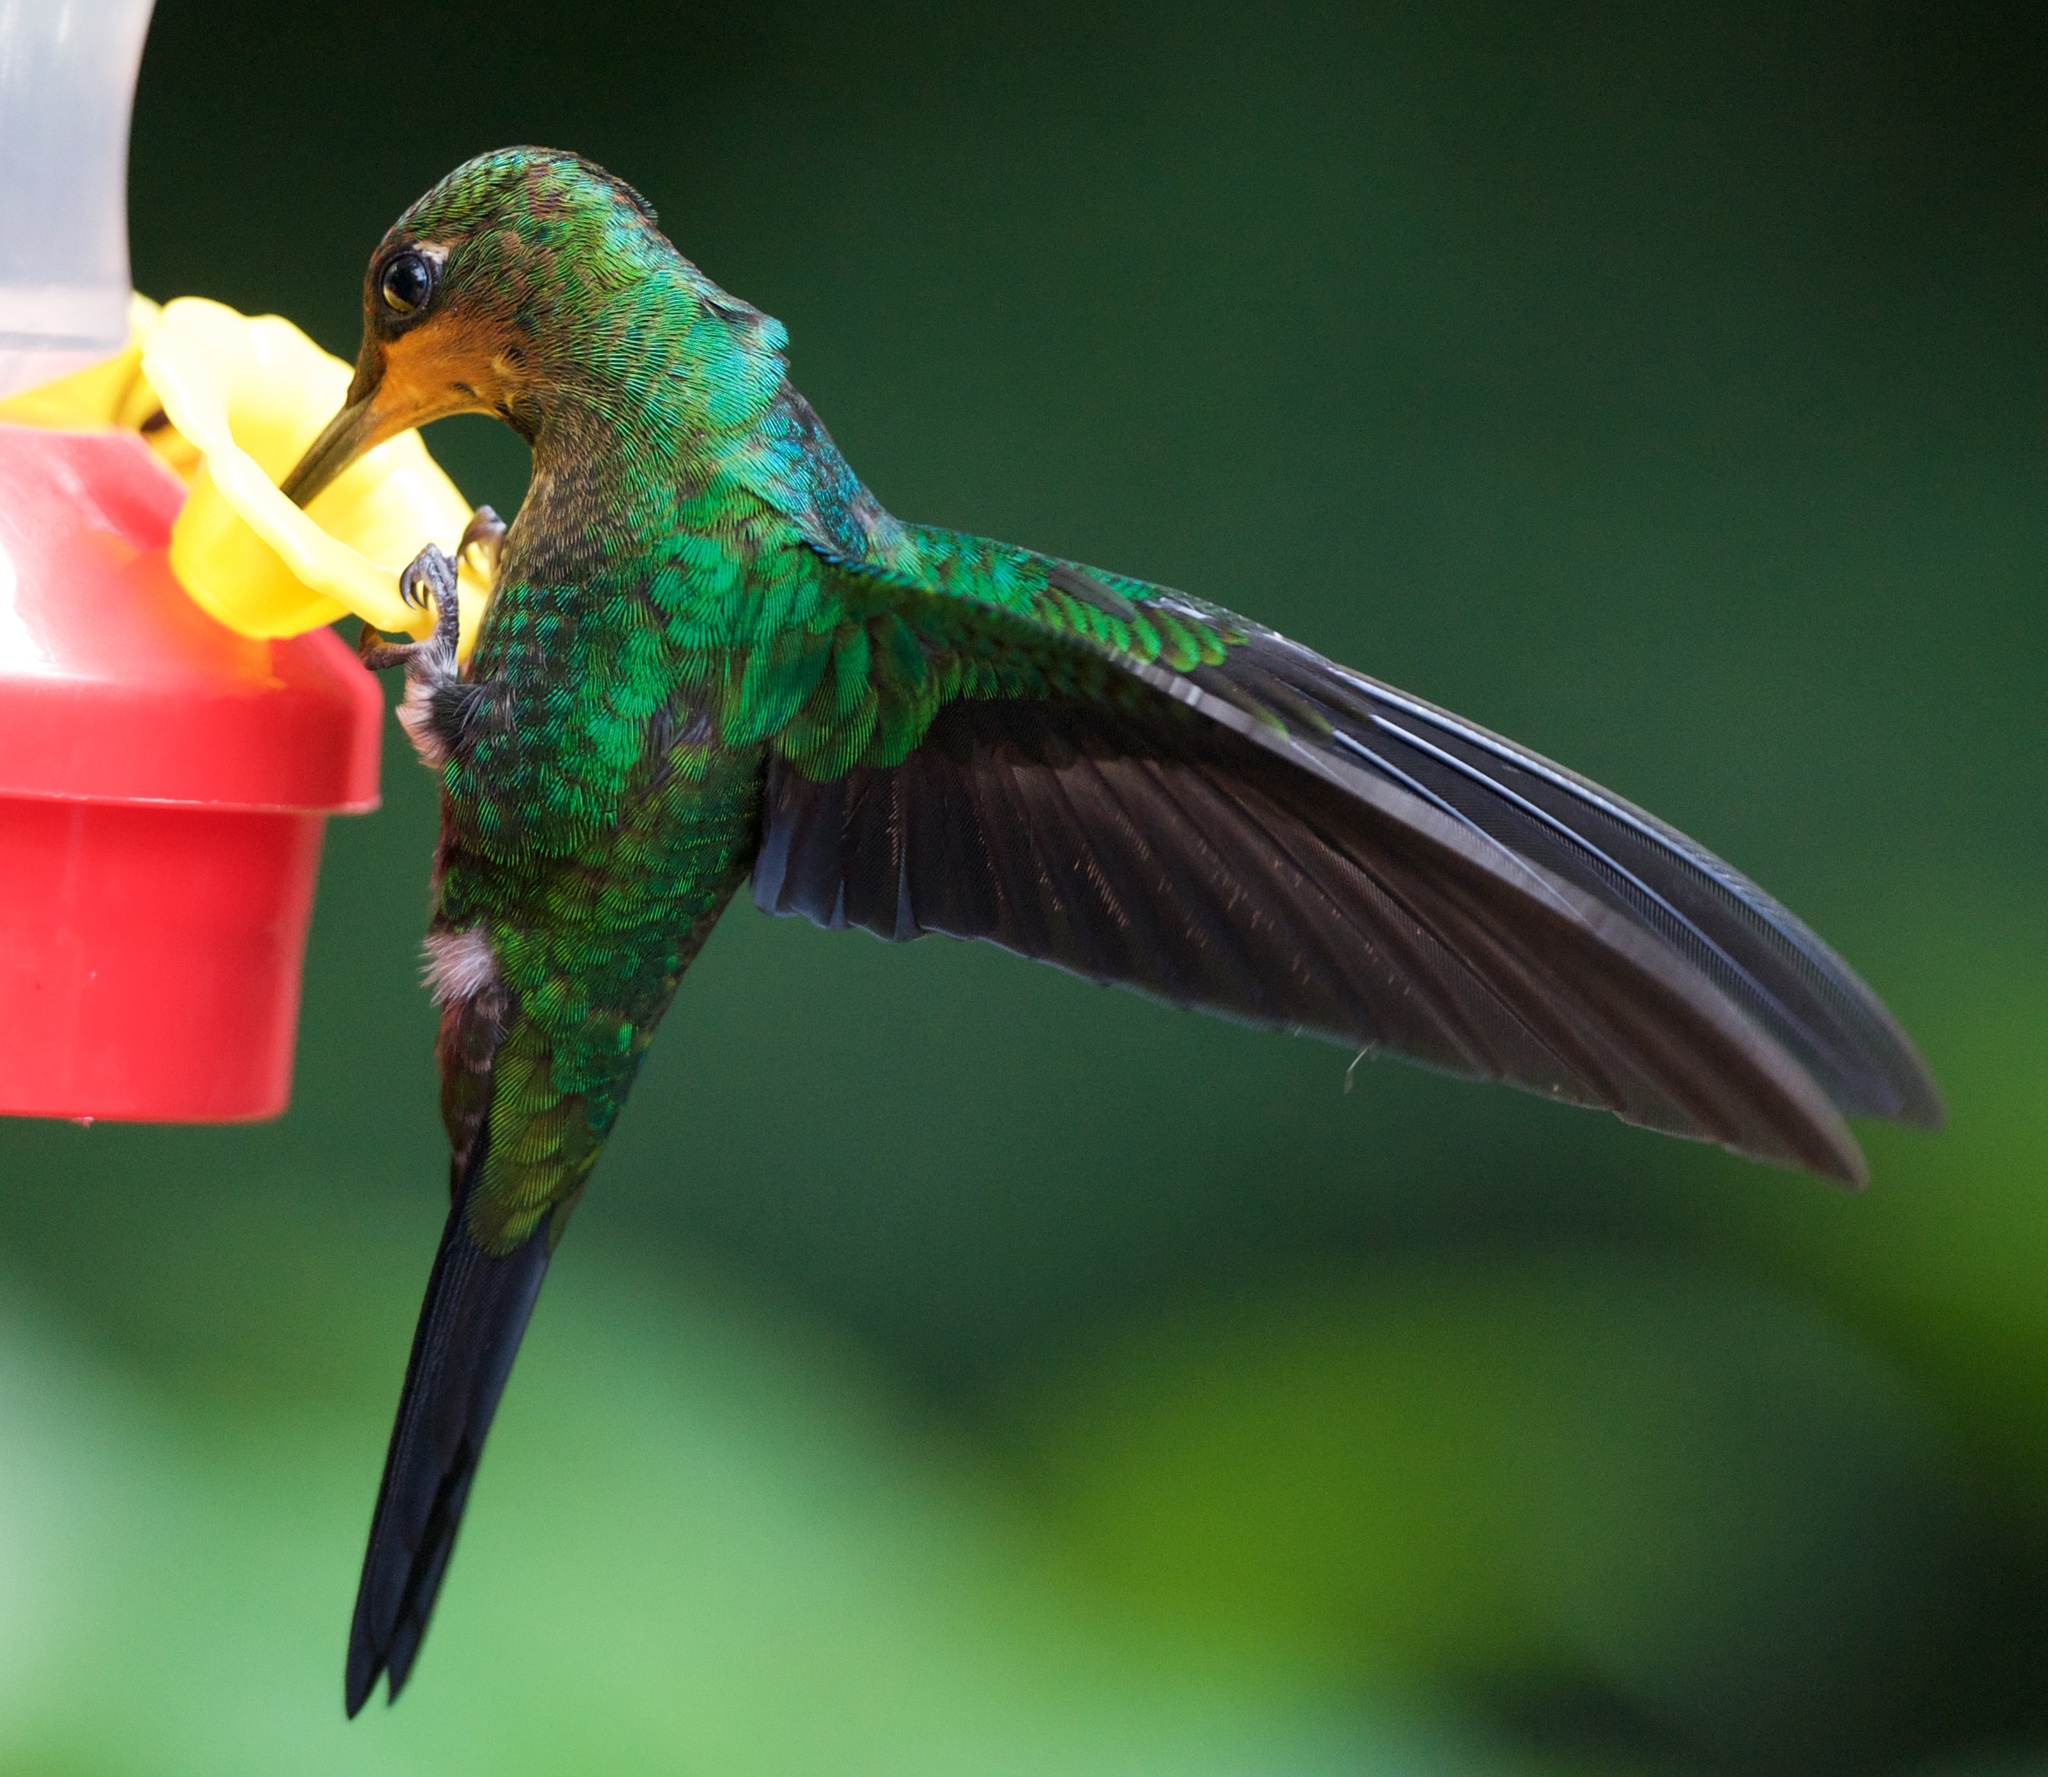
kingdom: Animalia
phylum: Chordata
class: Aves
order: Apodiformes
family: Trochilidae
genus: Heliodoxa
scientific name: Heliodoxa jacula
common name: Green-crowned brilliant
